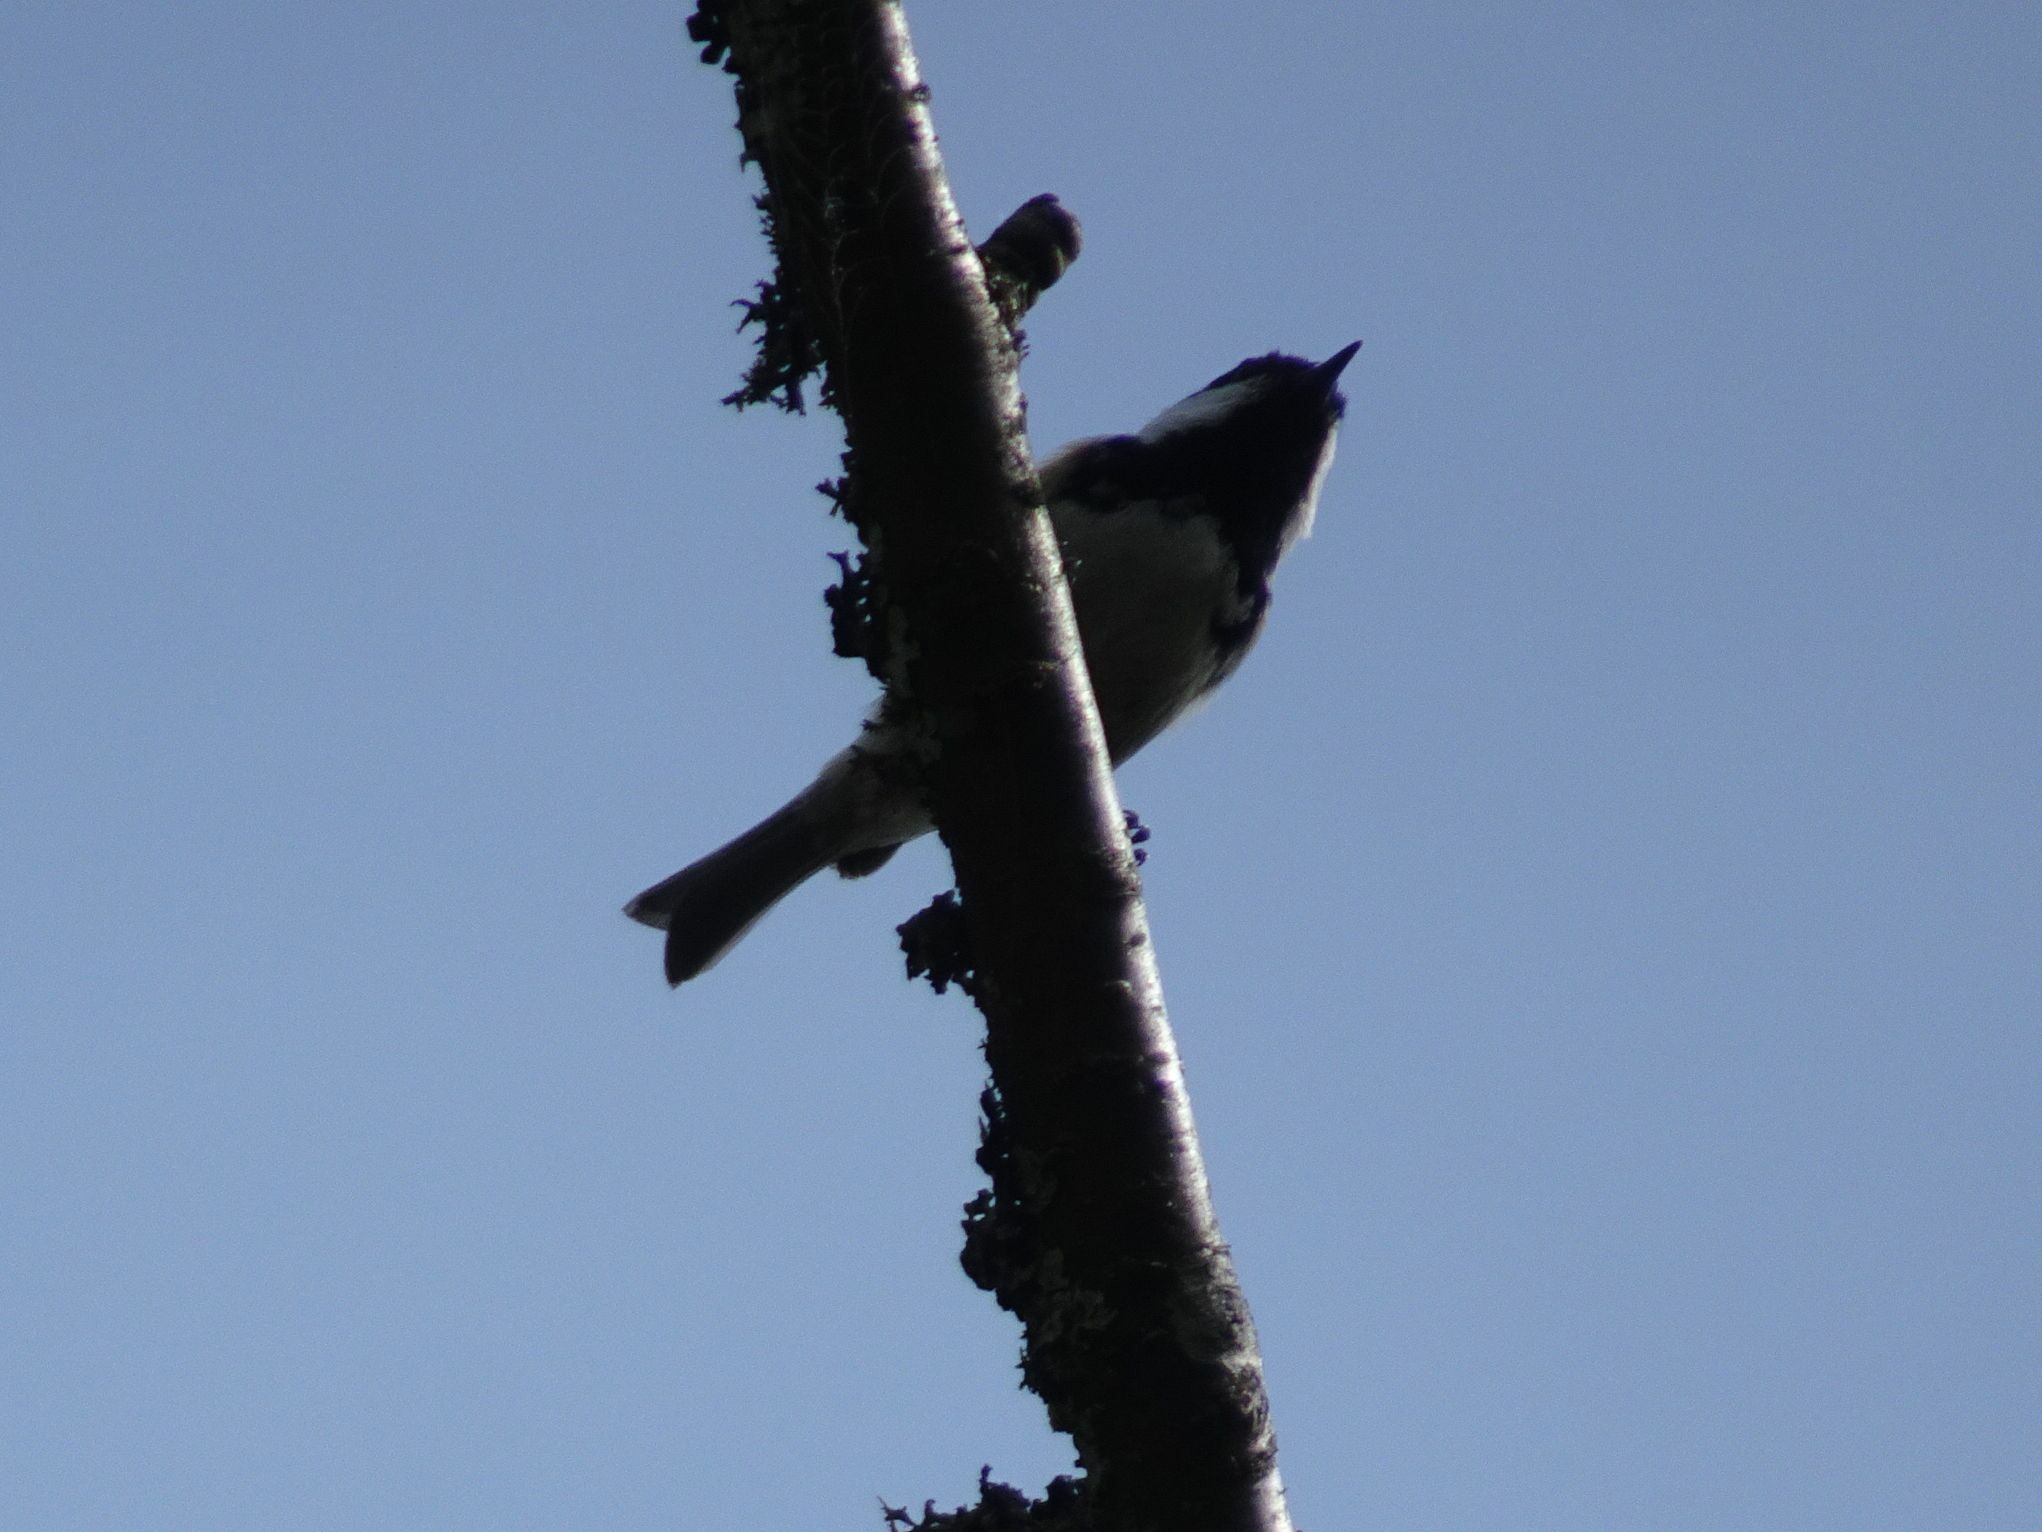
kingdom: Animalia
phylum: Chordata
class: Aves
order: Passeriformes
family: Paridae
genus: Periparus
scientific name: Periparus ater
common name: Coal tit
